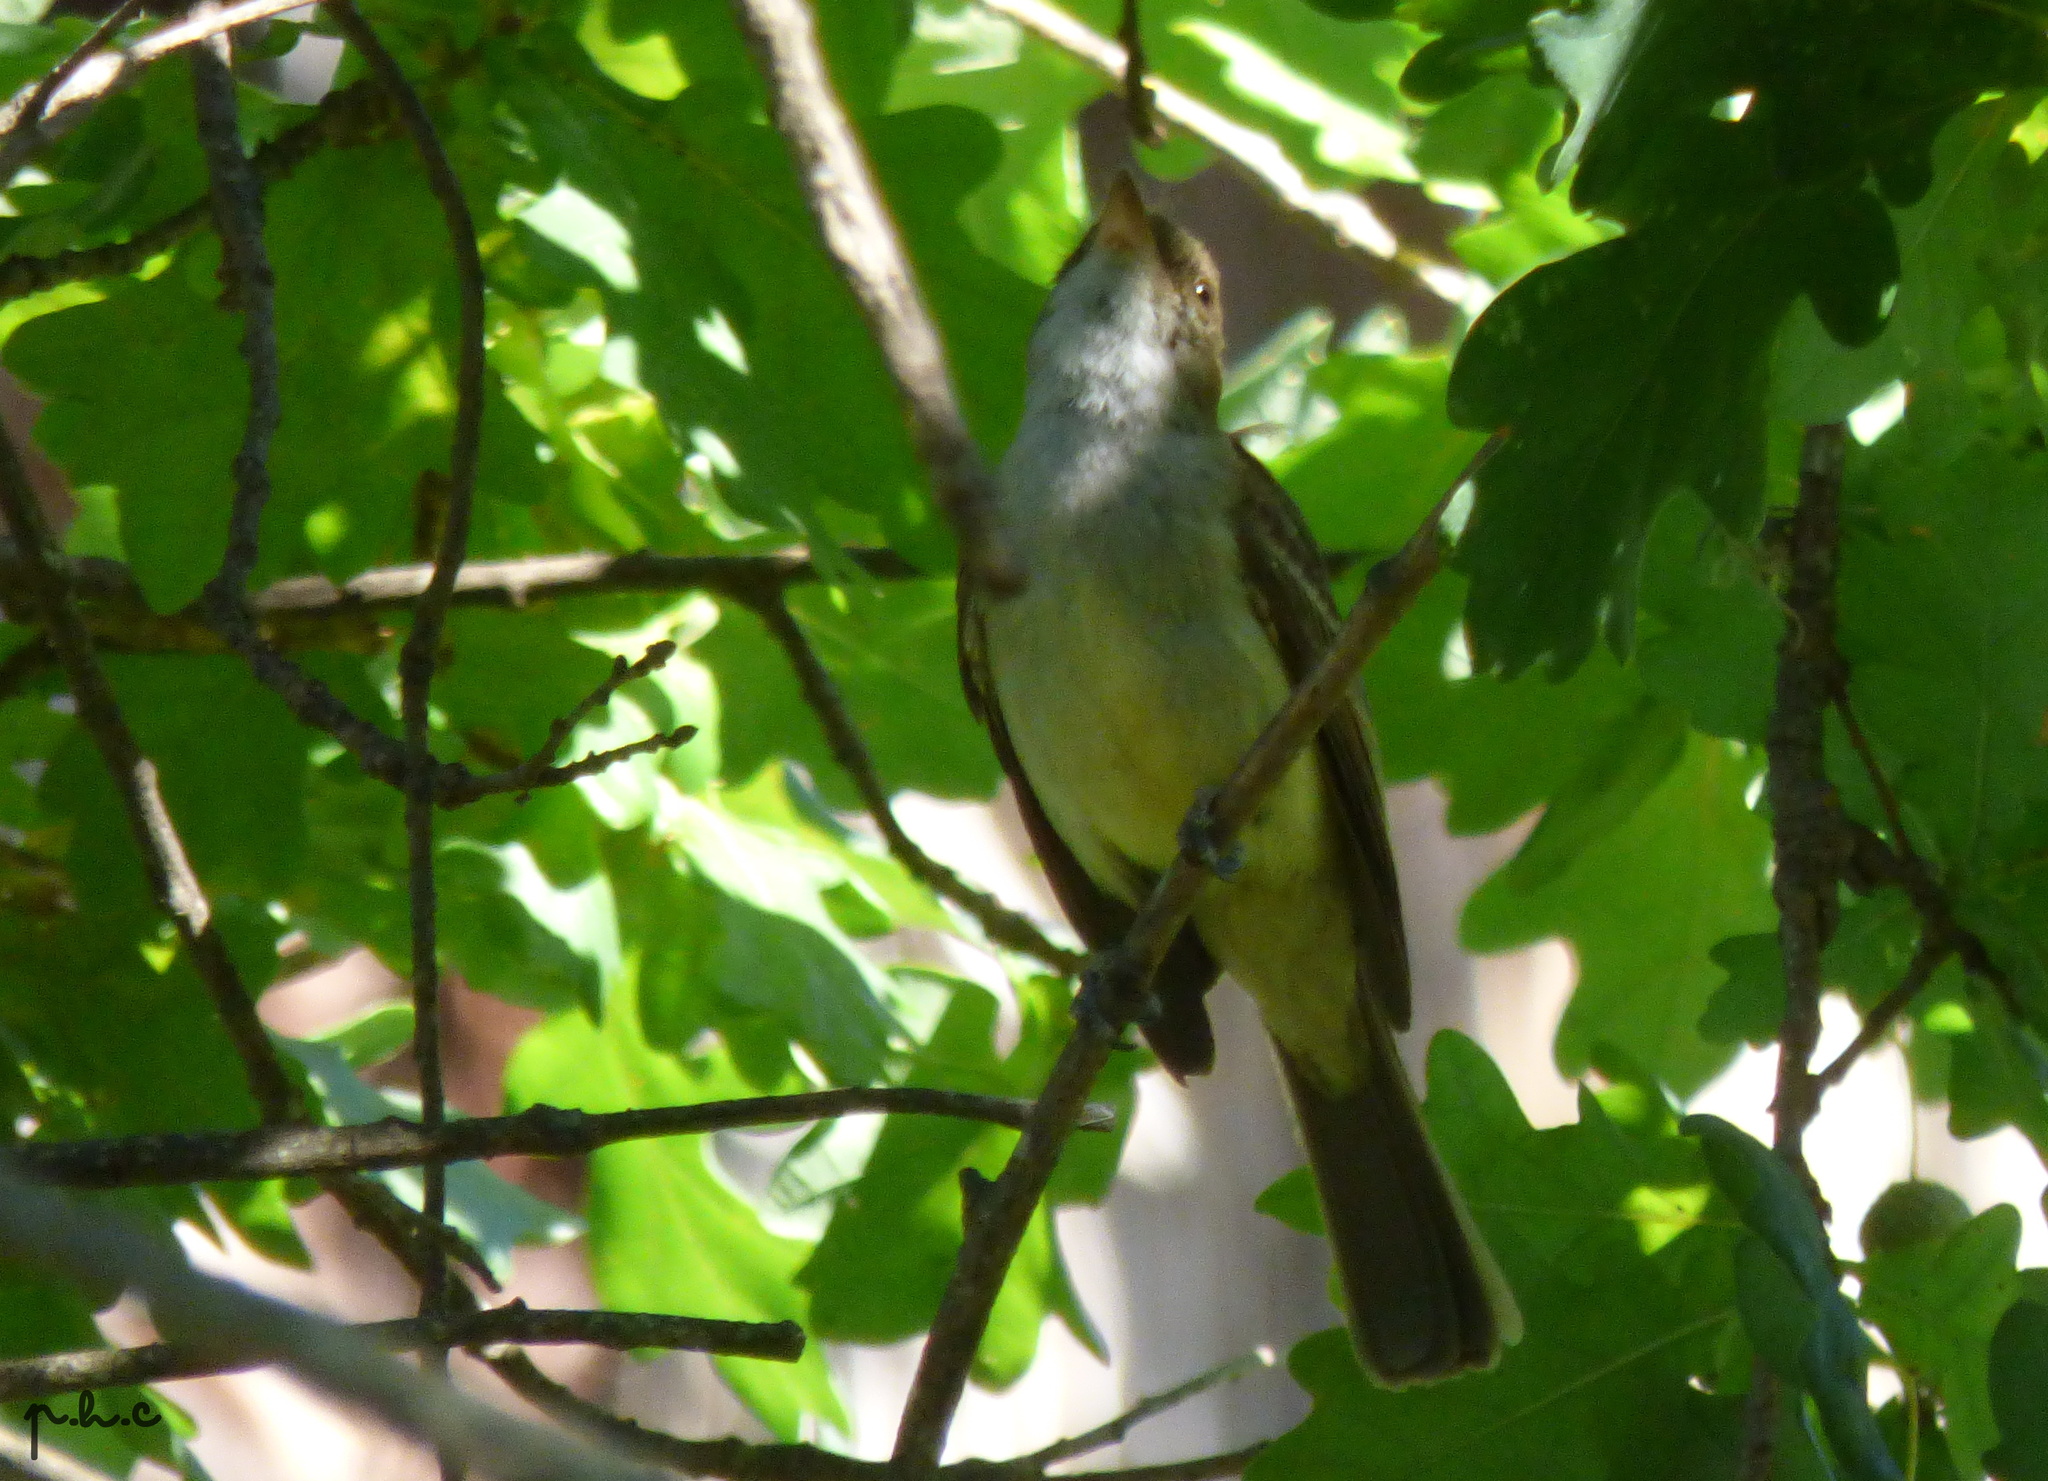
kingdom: Animalia
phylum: Chordata
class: Aves
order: Passeriformes
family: Tyrannidae
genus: Myiarchus
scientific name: Myiarchus swainsoni
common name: Swainson's flycatcher
